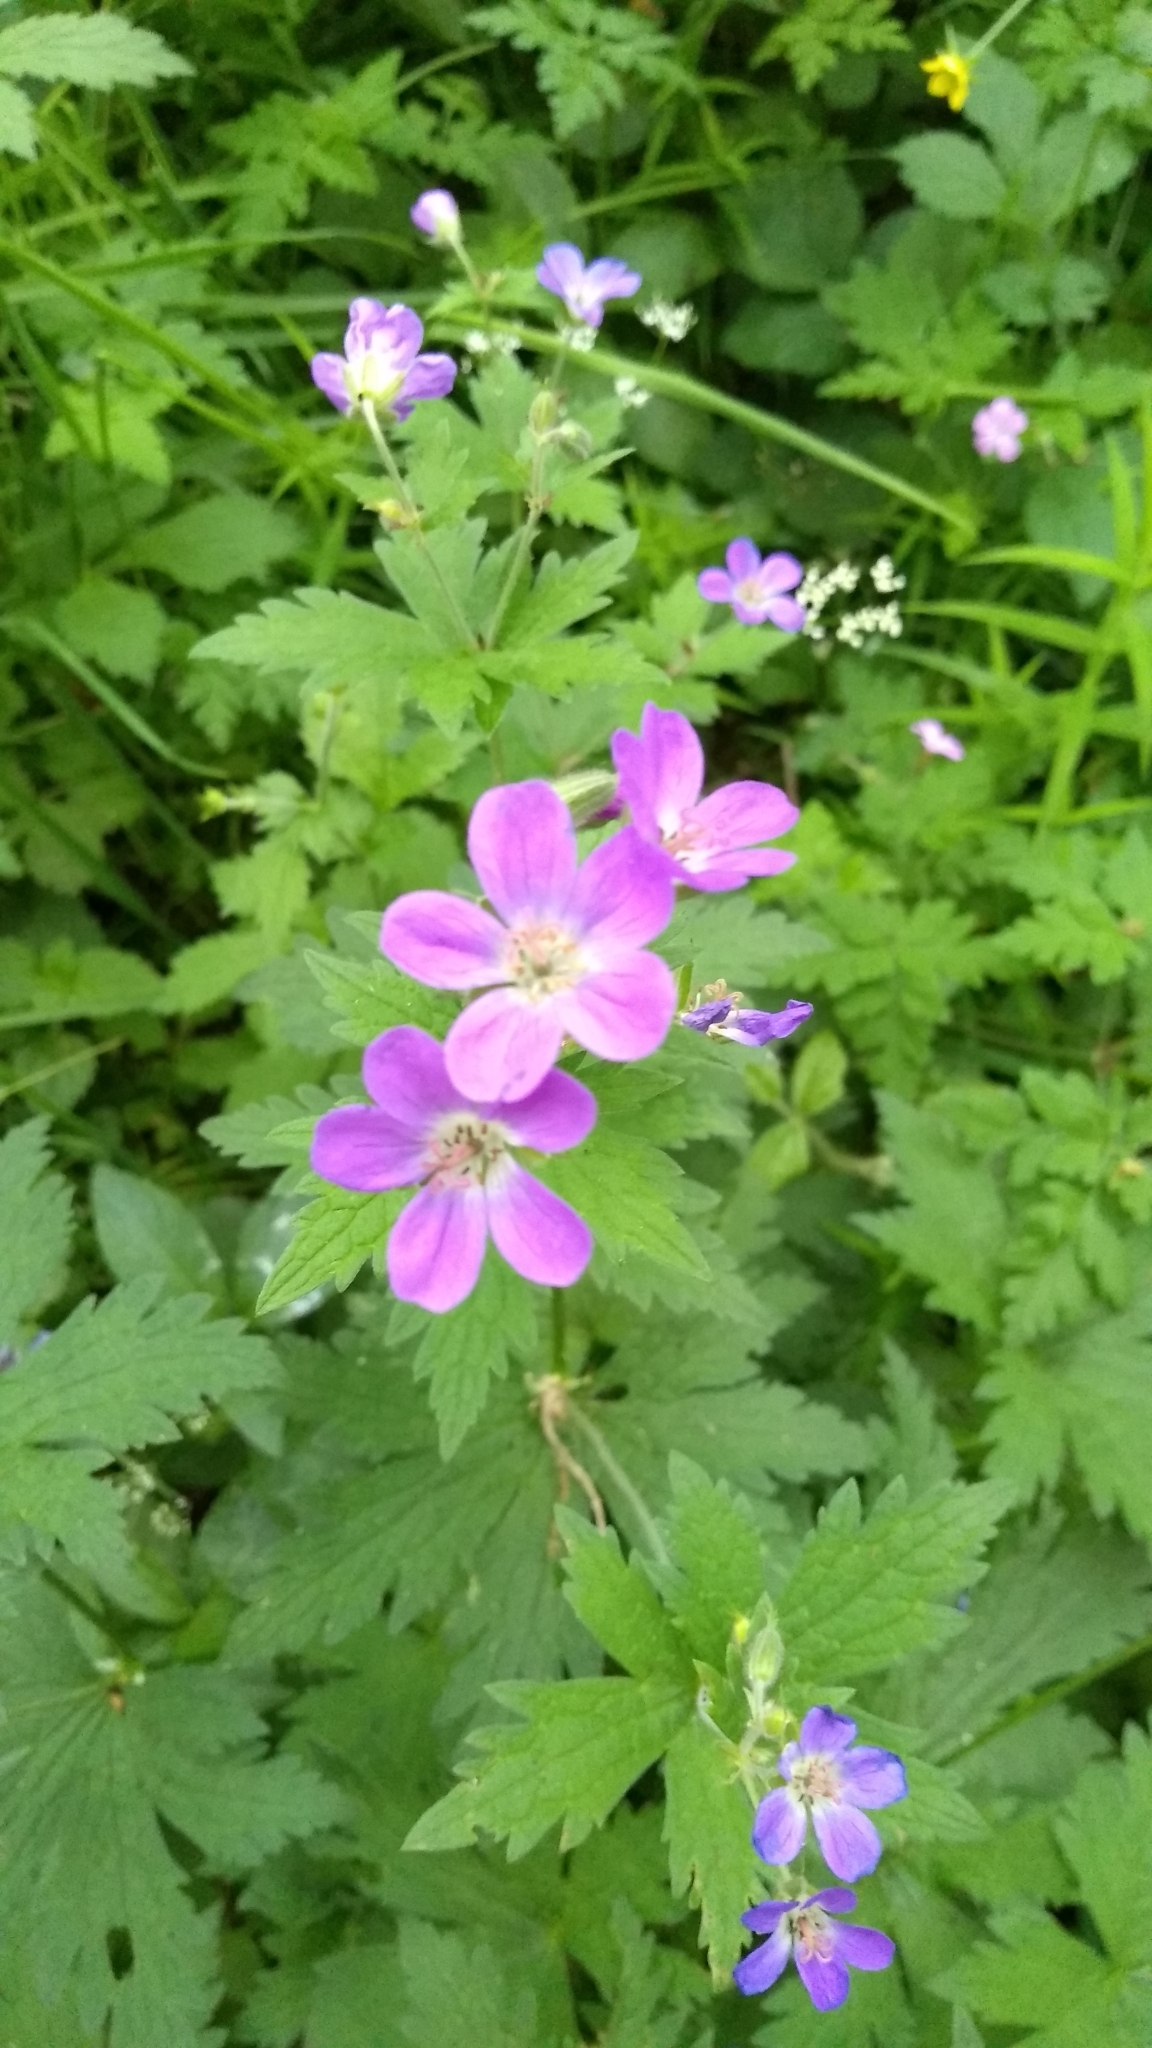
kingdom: Plantae
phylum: Tracheophyta
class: Magnoliopsida
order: Geraniales
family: Geraniaceae
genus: Geranium
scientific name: Geranium sylvaticum
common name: Wood crane's-bill
